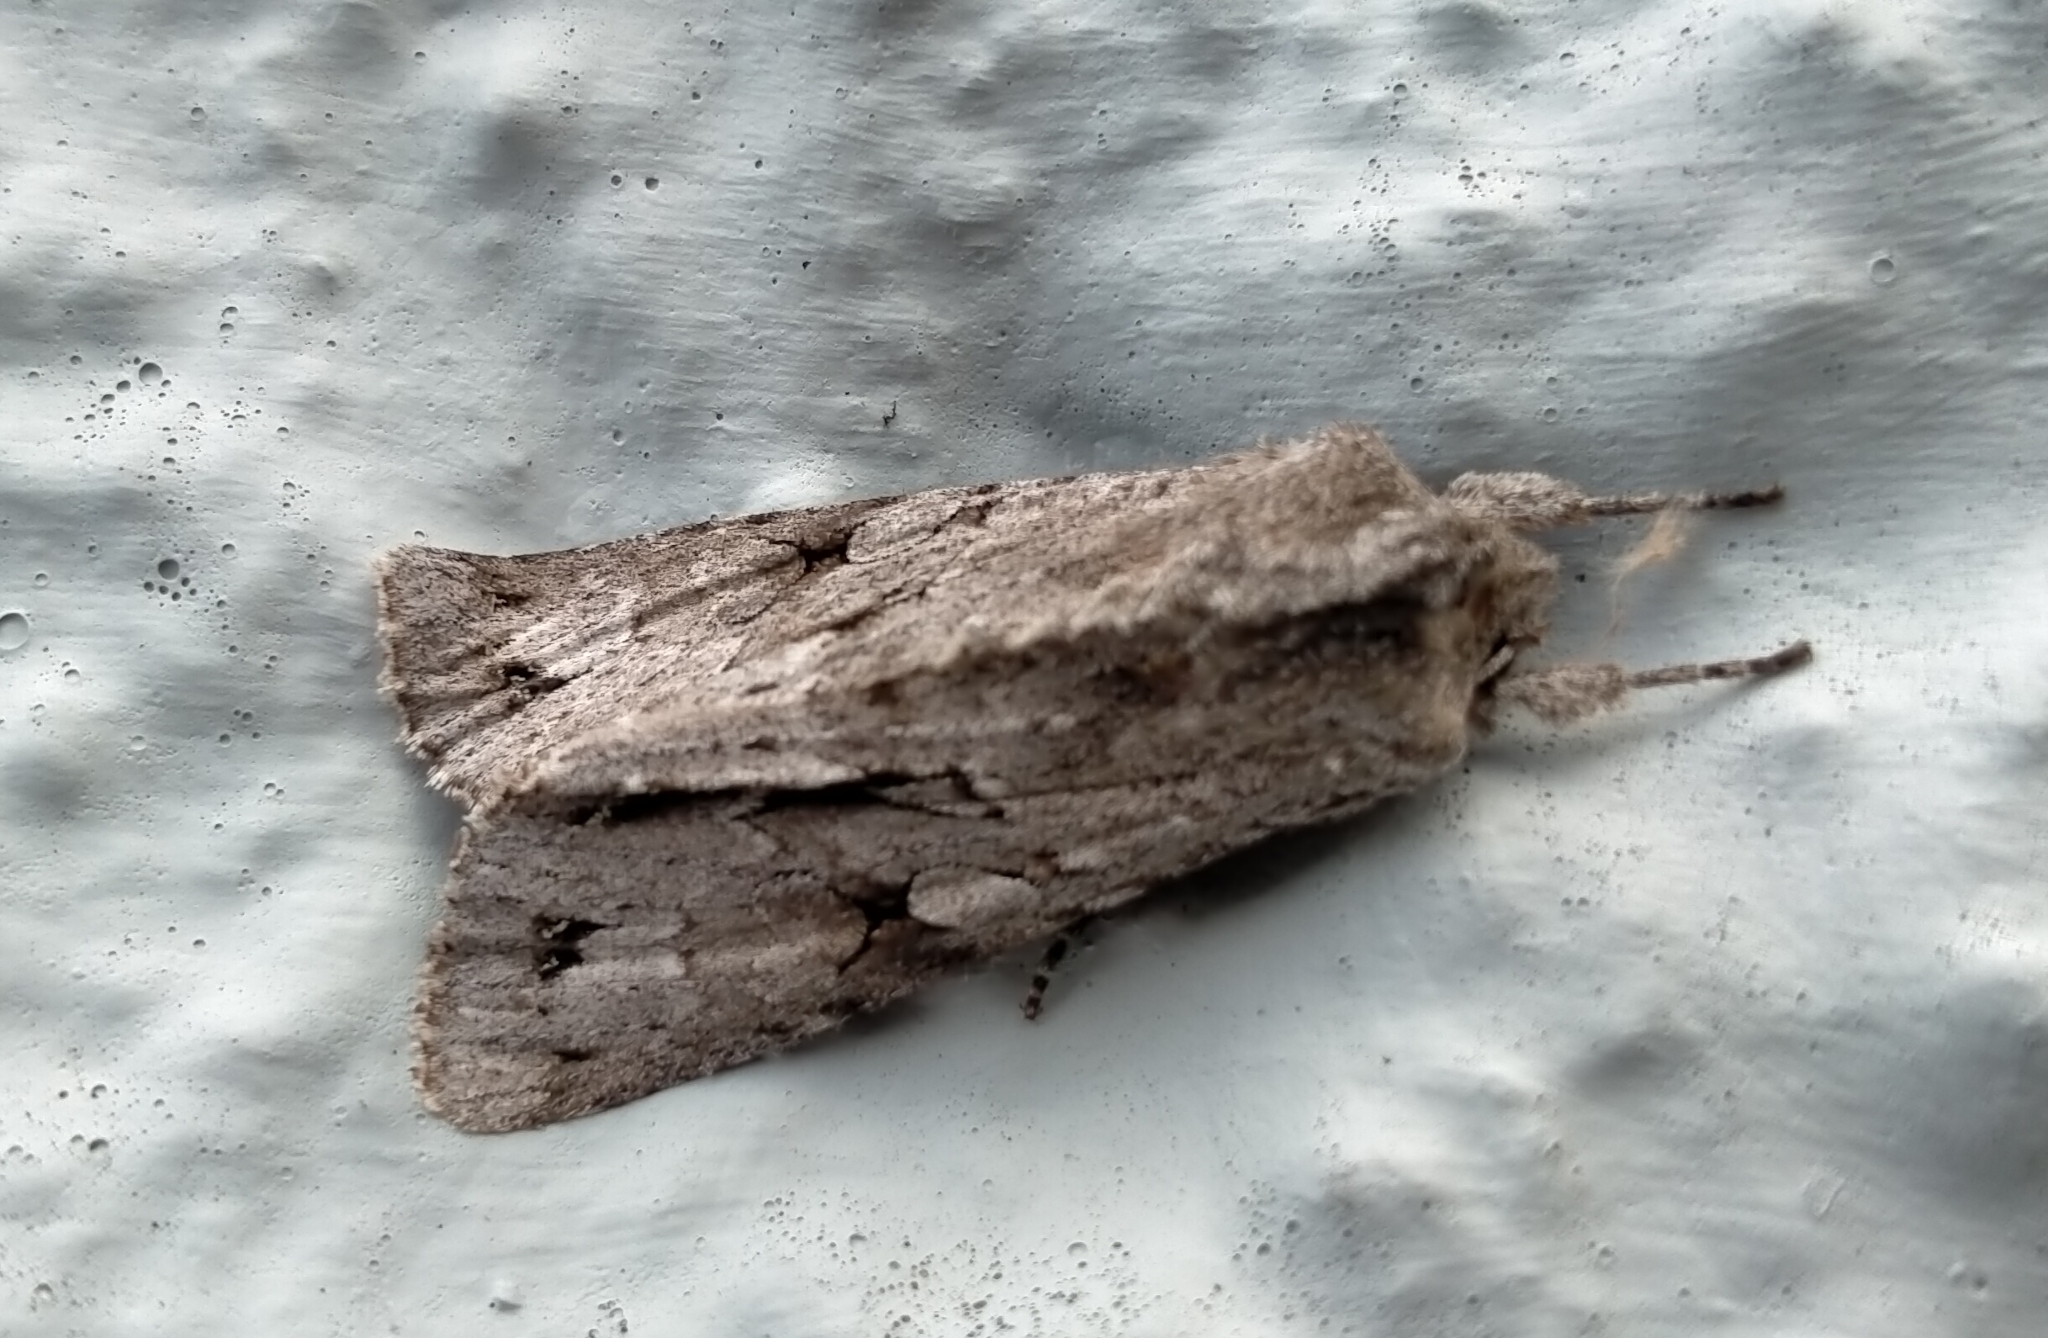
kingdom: Animalia
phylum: Arthropoda
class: Insecta
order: Lepidoptera
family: Noctuidae
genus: Ichneutica
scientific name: Ichneutica
